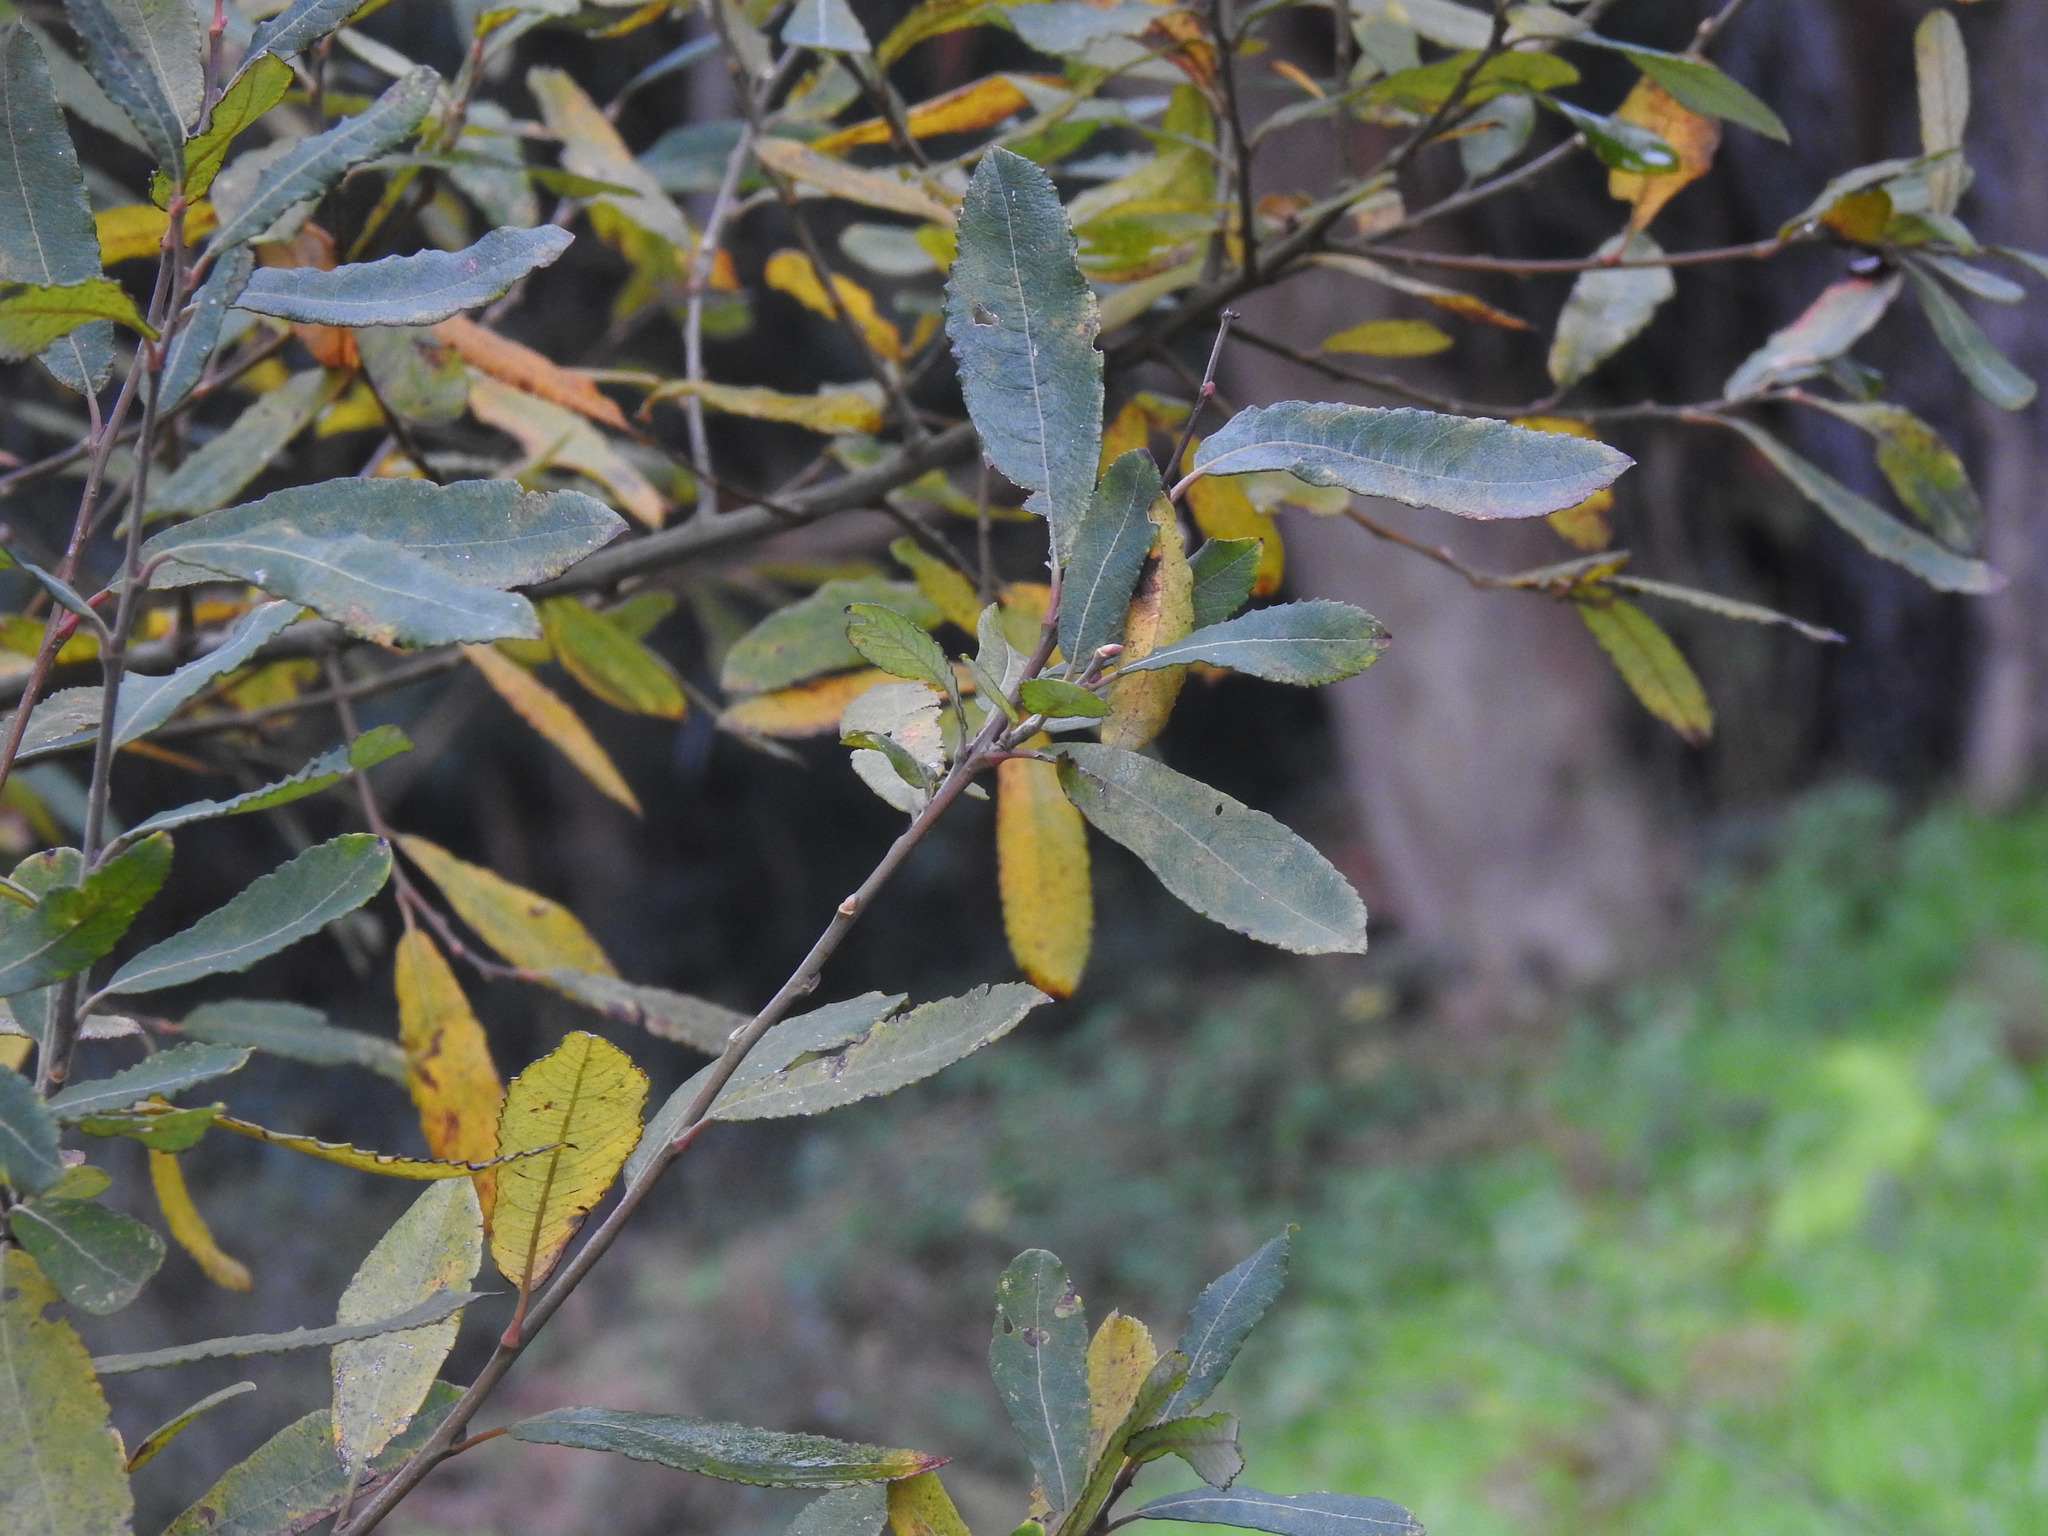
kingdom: Plantae
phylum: Tracheophyta
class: Magnoliopsida
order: Malpighiales
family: Salicaceae
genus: Salix
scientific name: Salix atrocinerea
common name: Rusty willow
